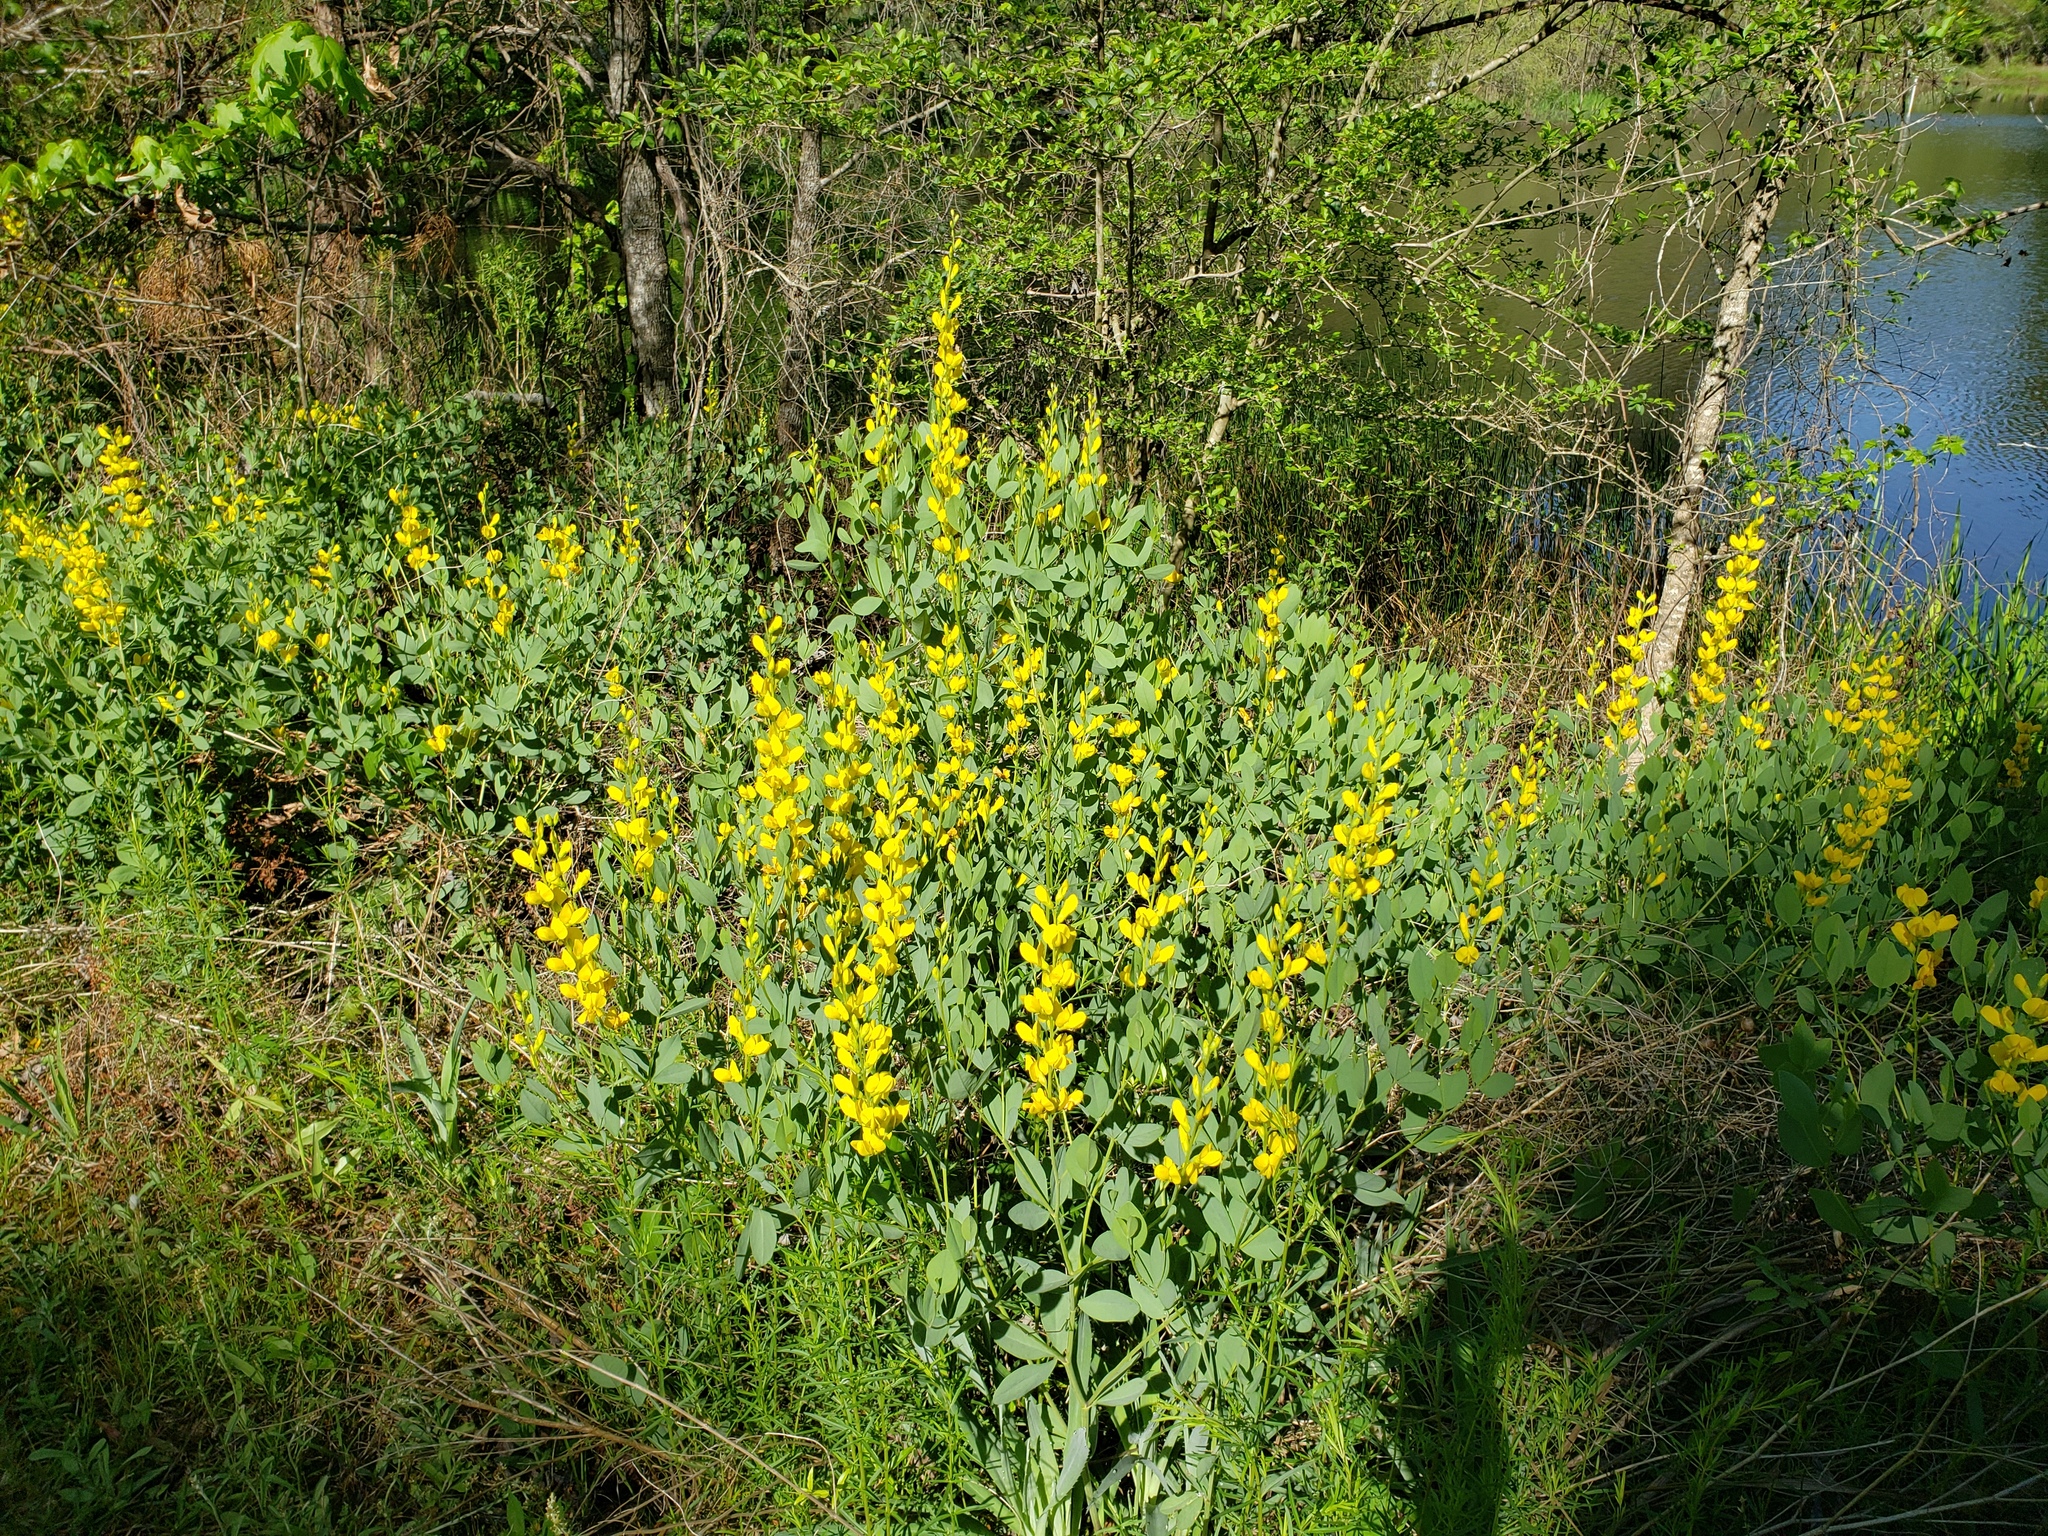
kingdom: Plantae
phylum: Tracheophyta
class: Magnoliopsida
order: Fabales
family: Fabaceae
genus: Baptisia
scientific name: Baptisia sphaerocarpa
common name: Round wild indigo
